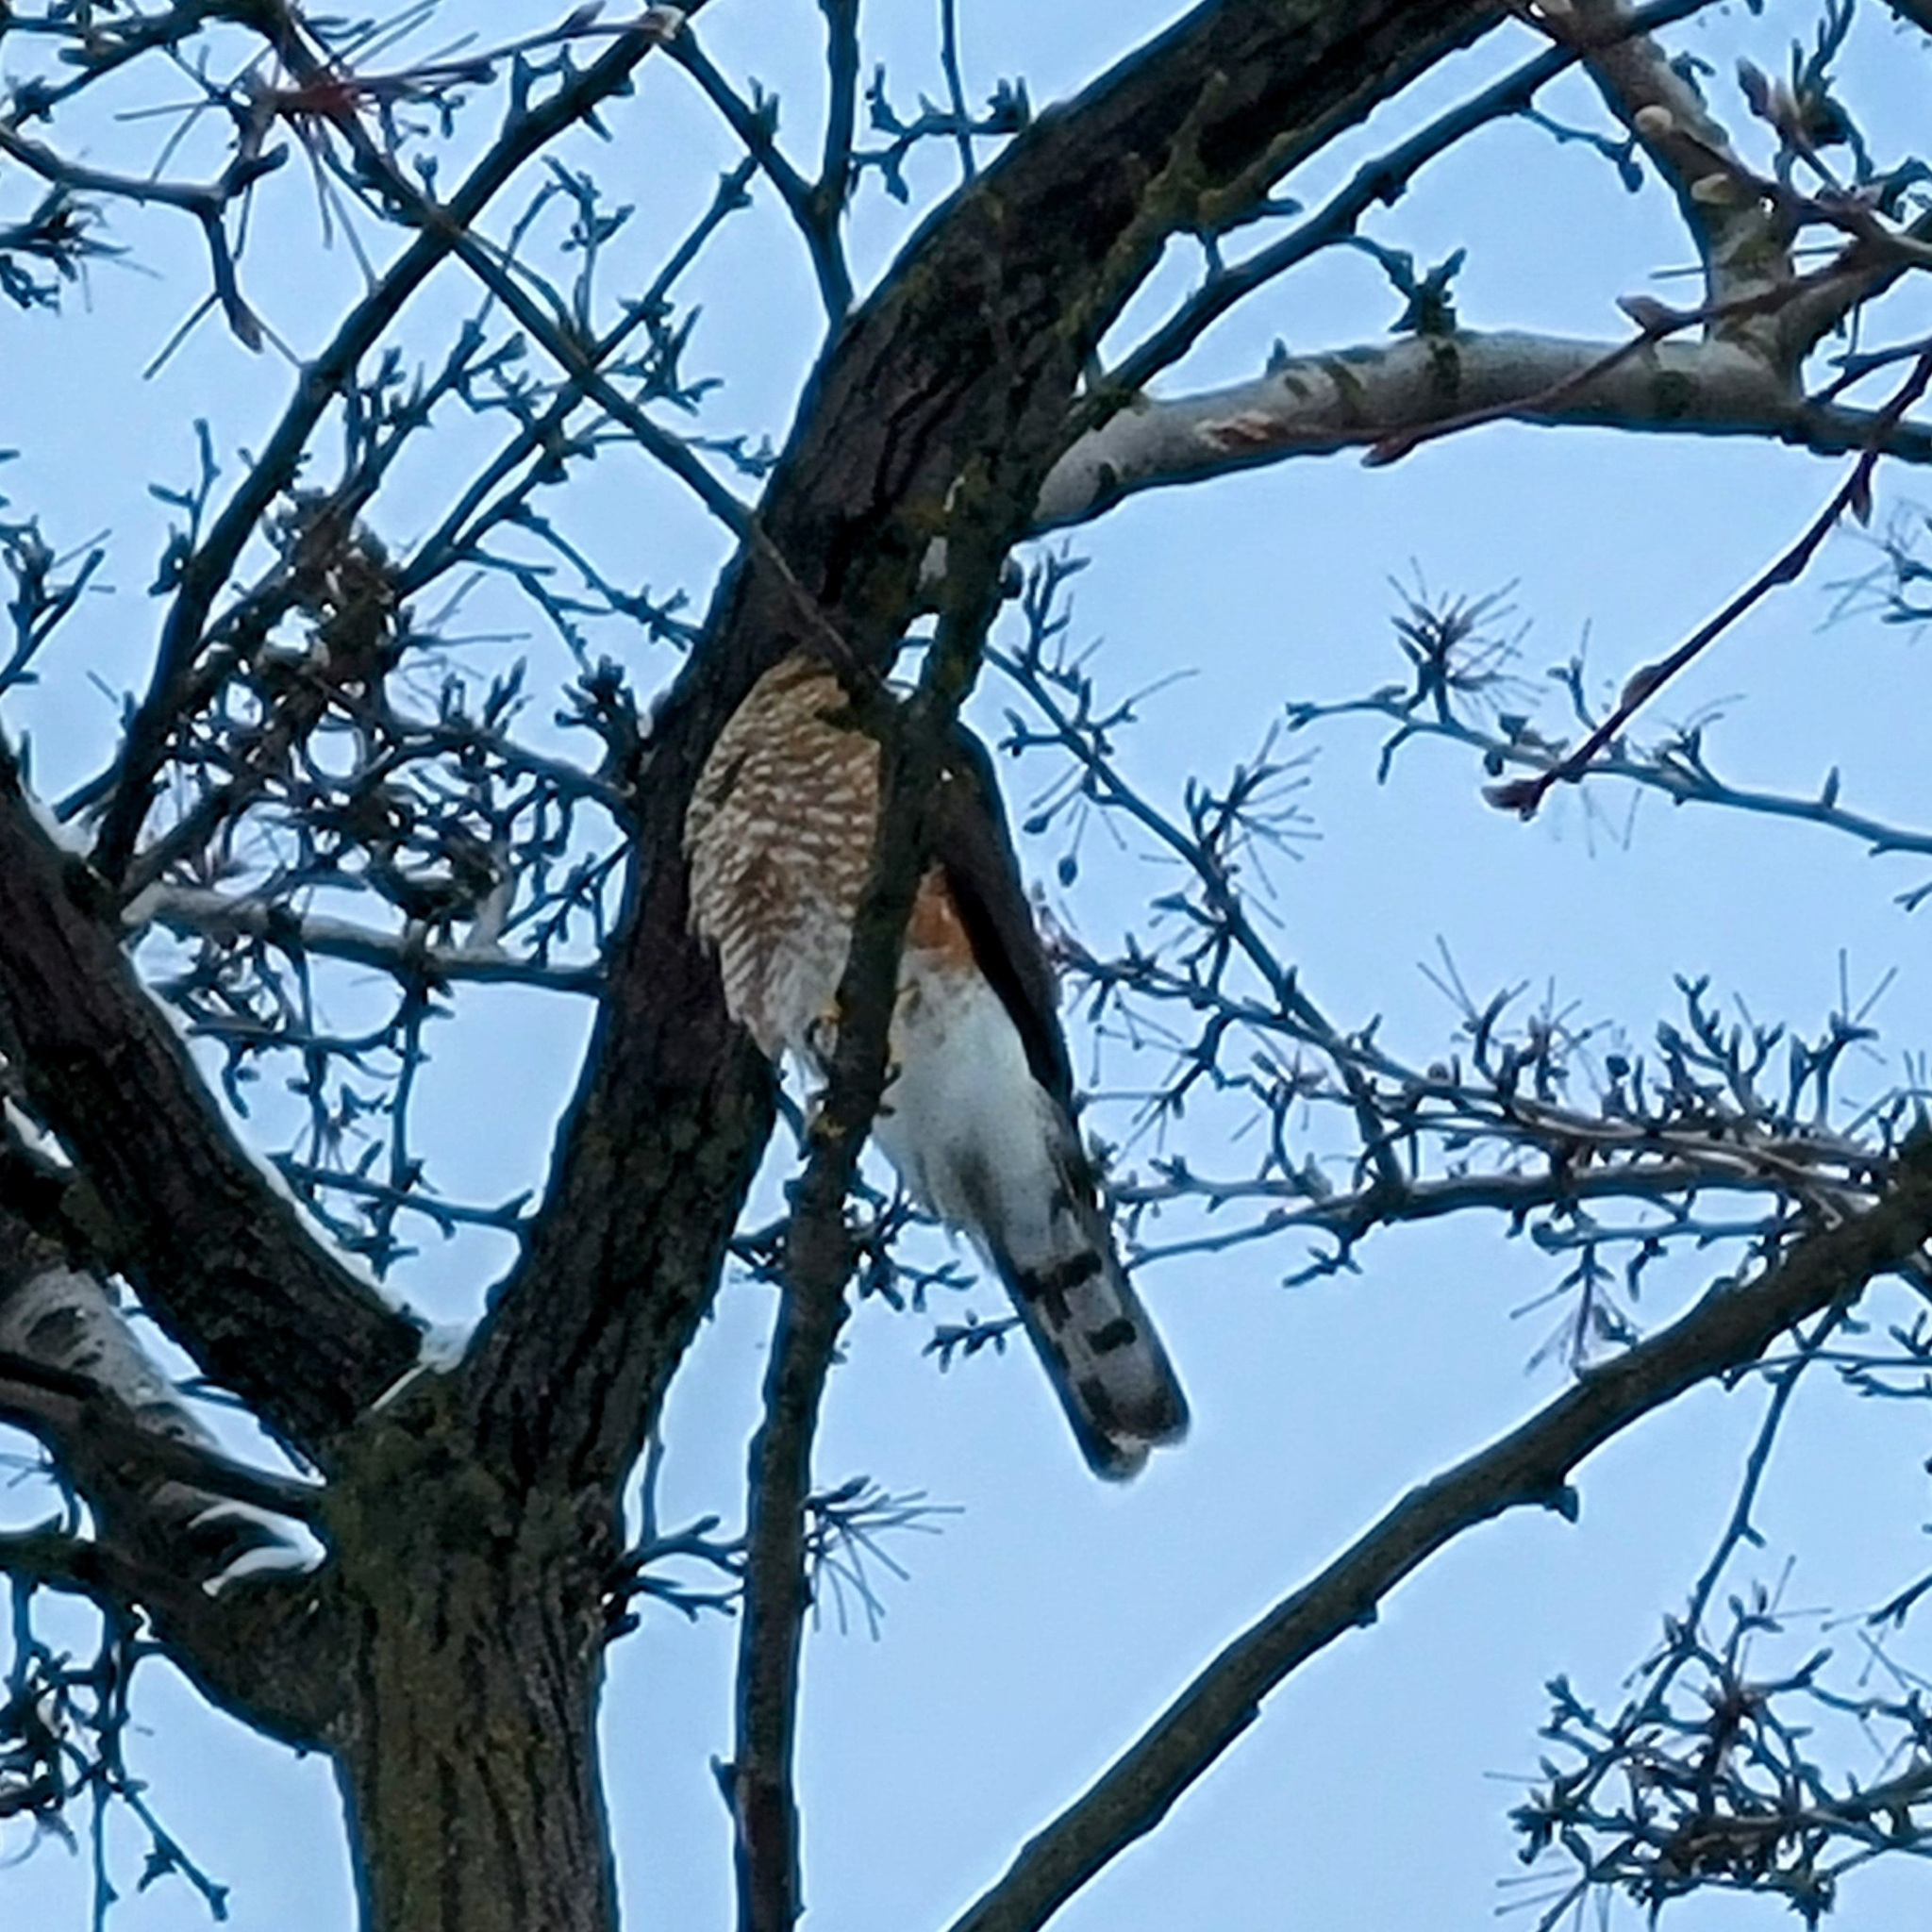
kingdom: Animalia
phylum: Chordata
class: Aves
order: Accipitriformes
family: Accipitridae
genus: Accipiter
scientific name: Accipiter striatus
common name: Sharp-shinned hawk
